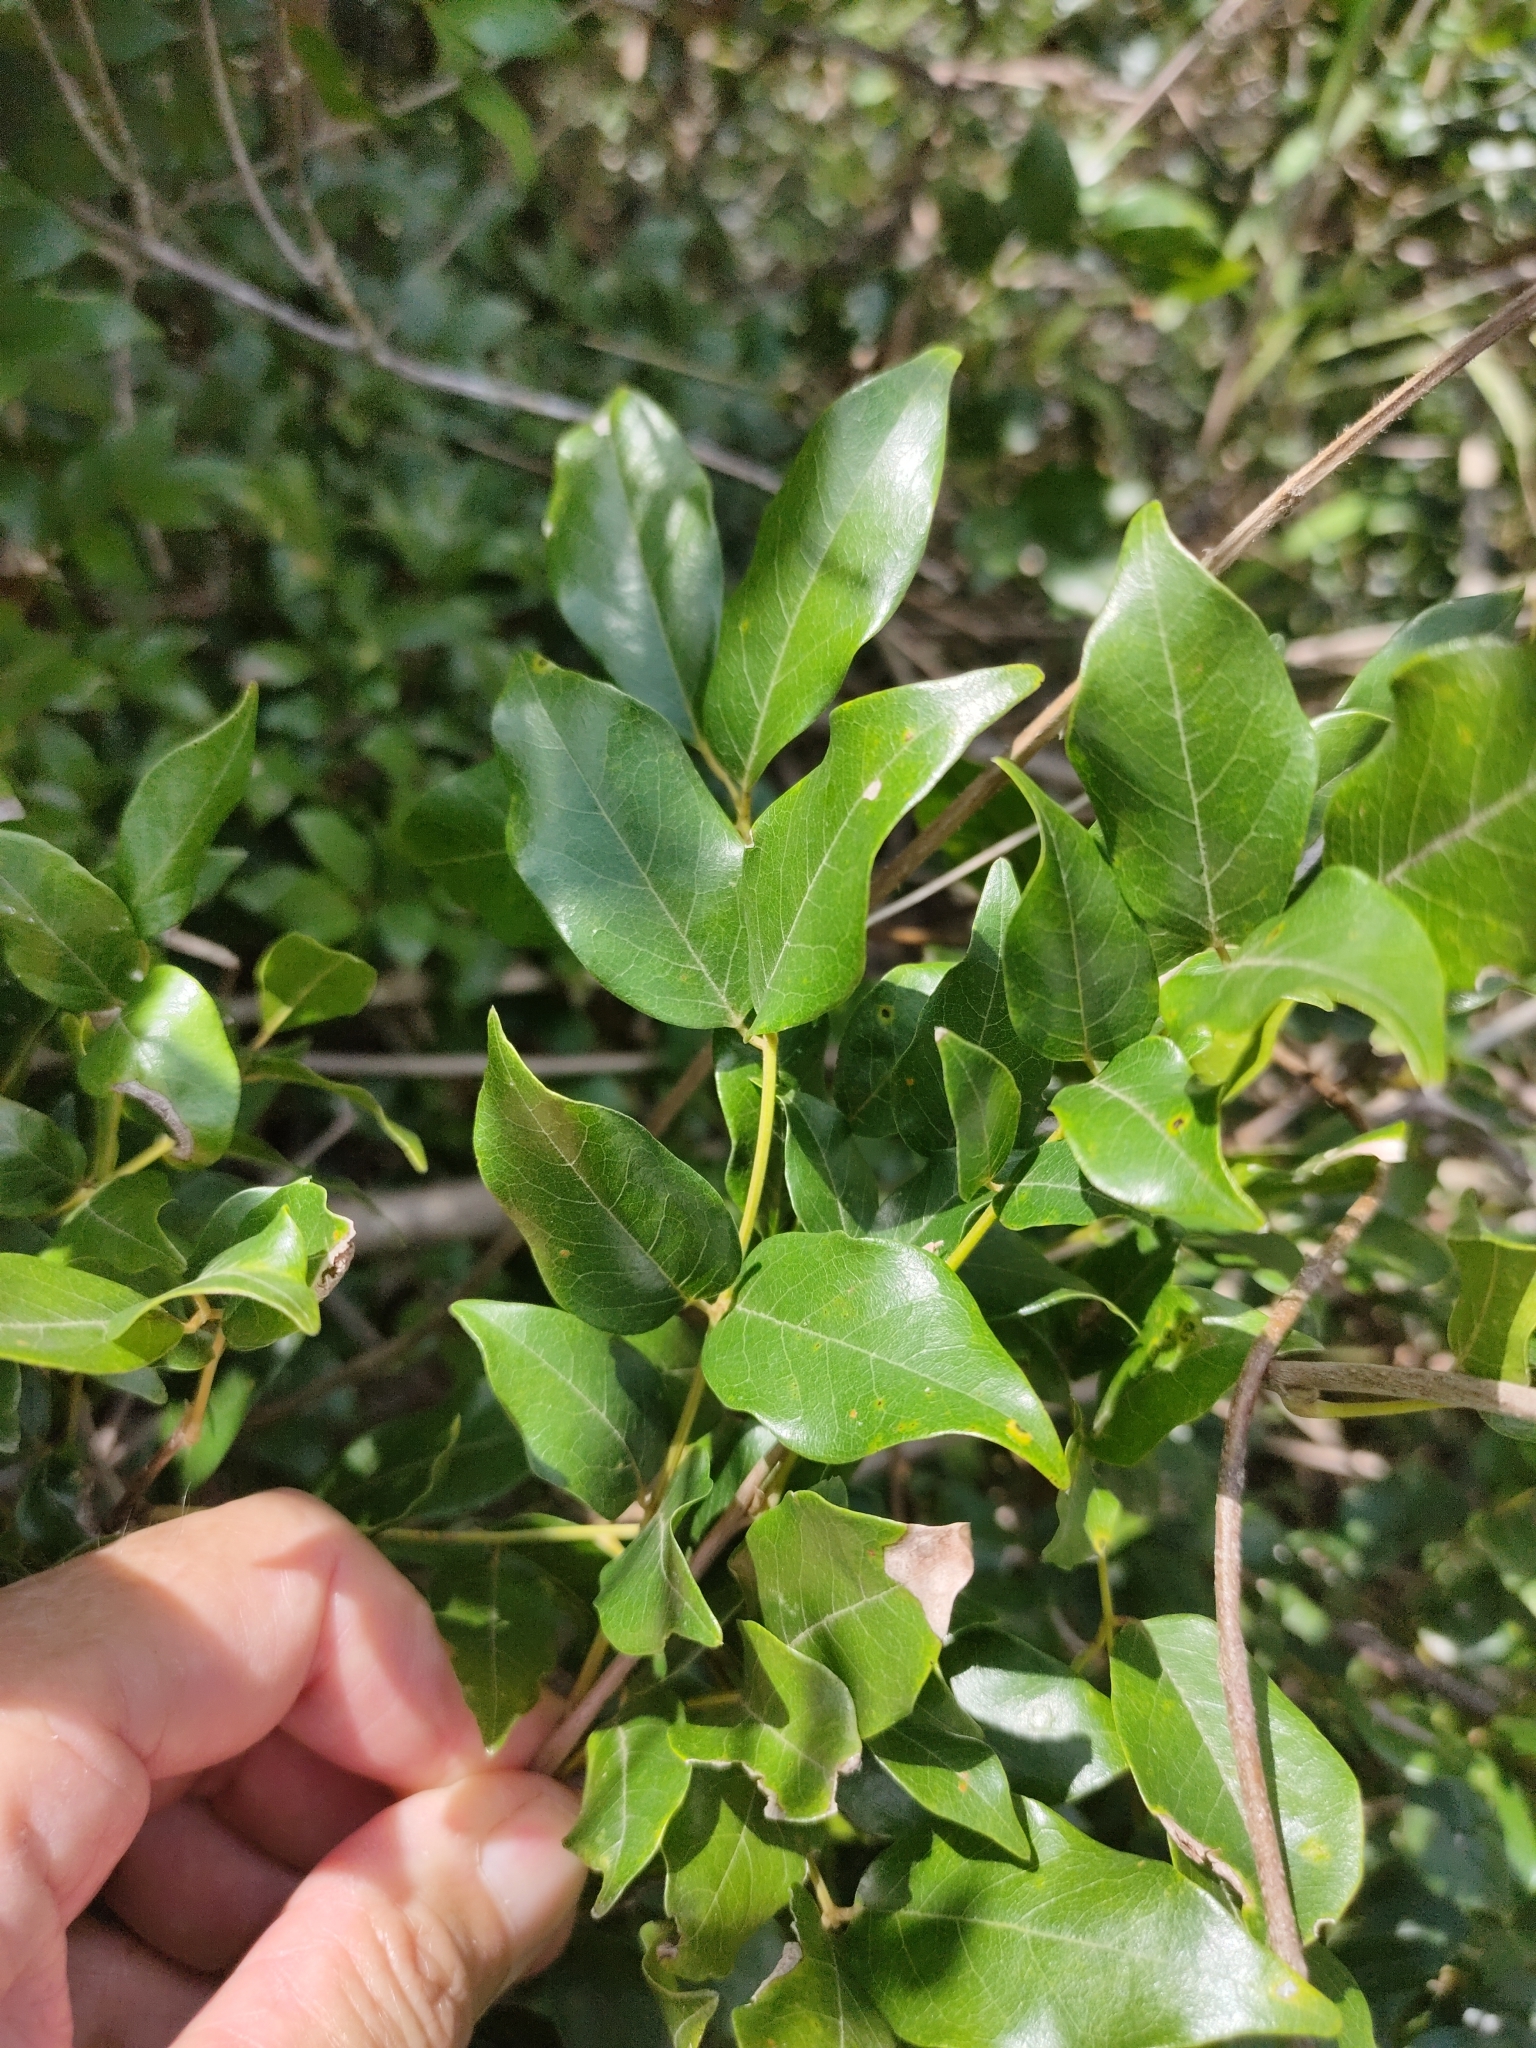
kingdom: Plantae
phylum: Tracheophyta
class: Magnoliopsida
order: Fabales
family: Fabaceae
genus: Austrosteenisia
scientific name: Austrosteenisia blackii
